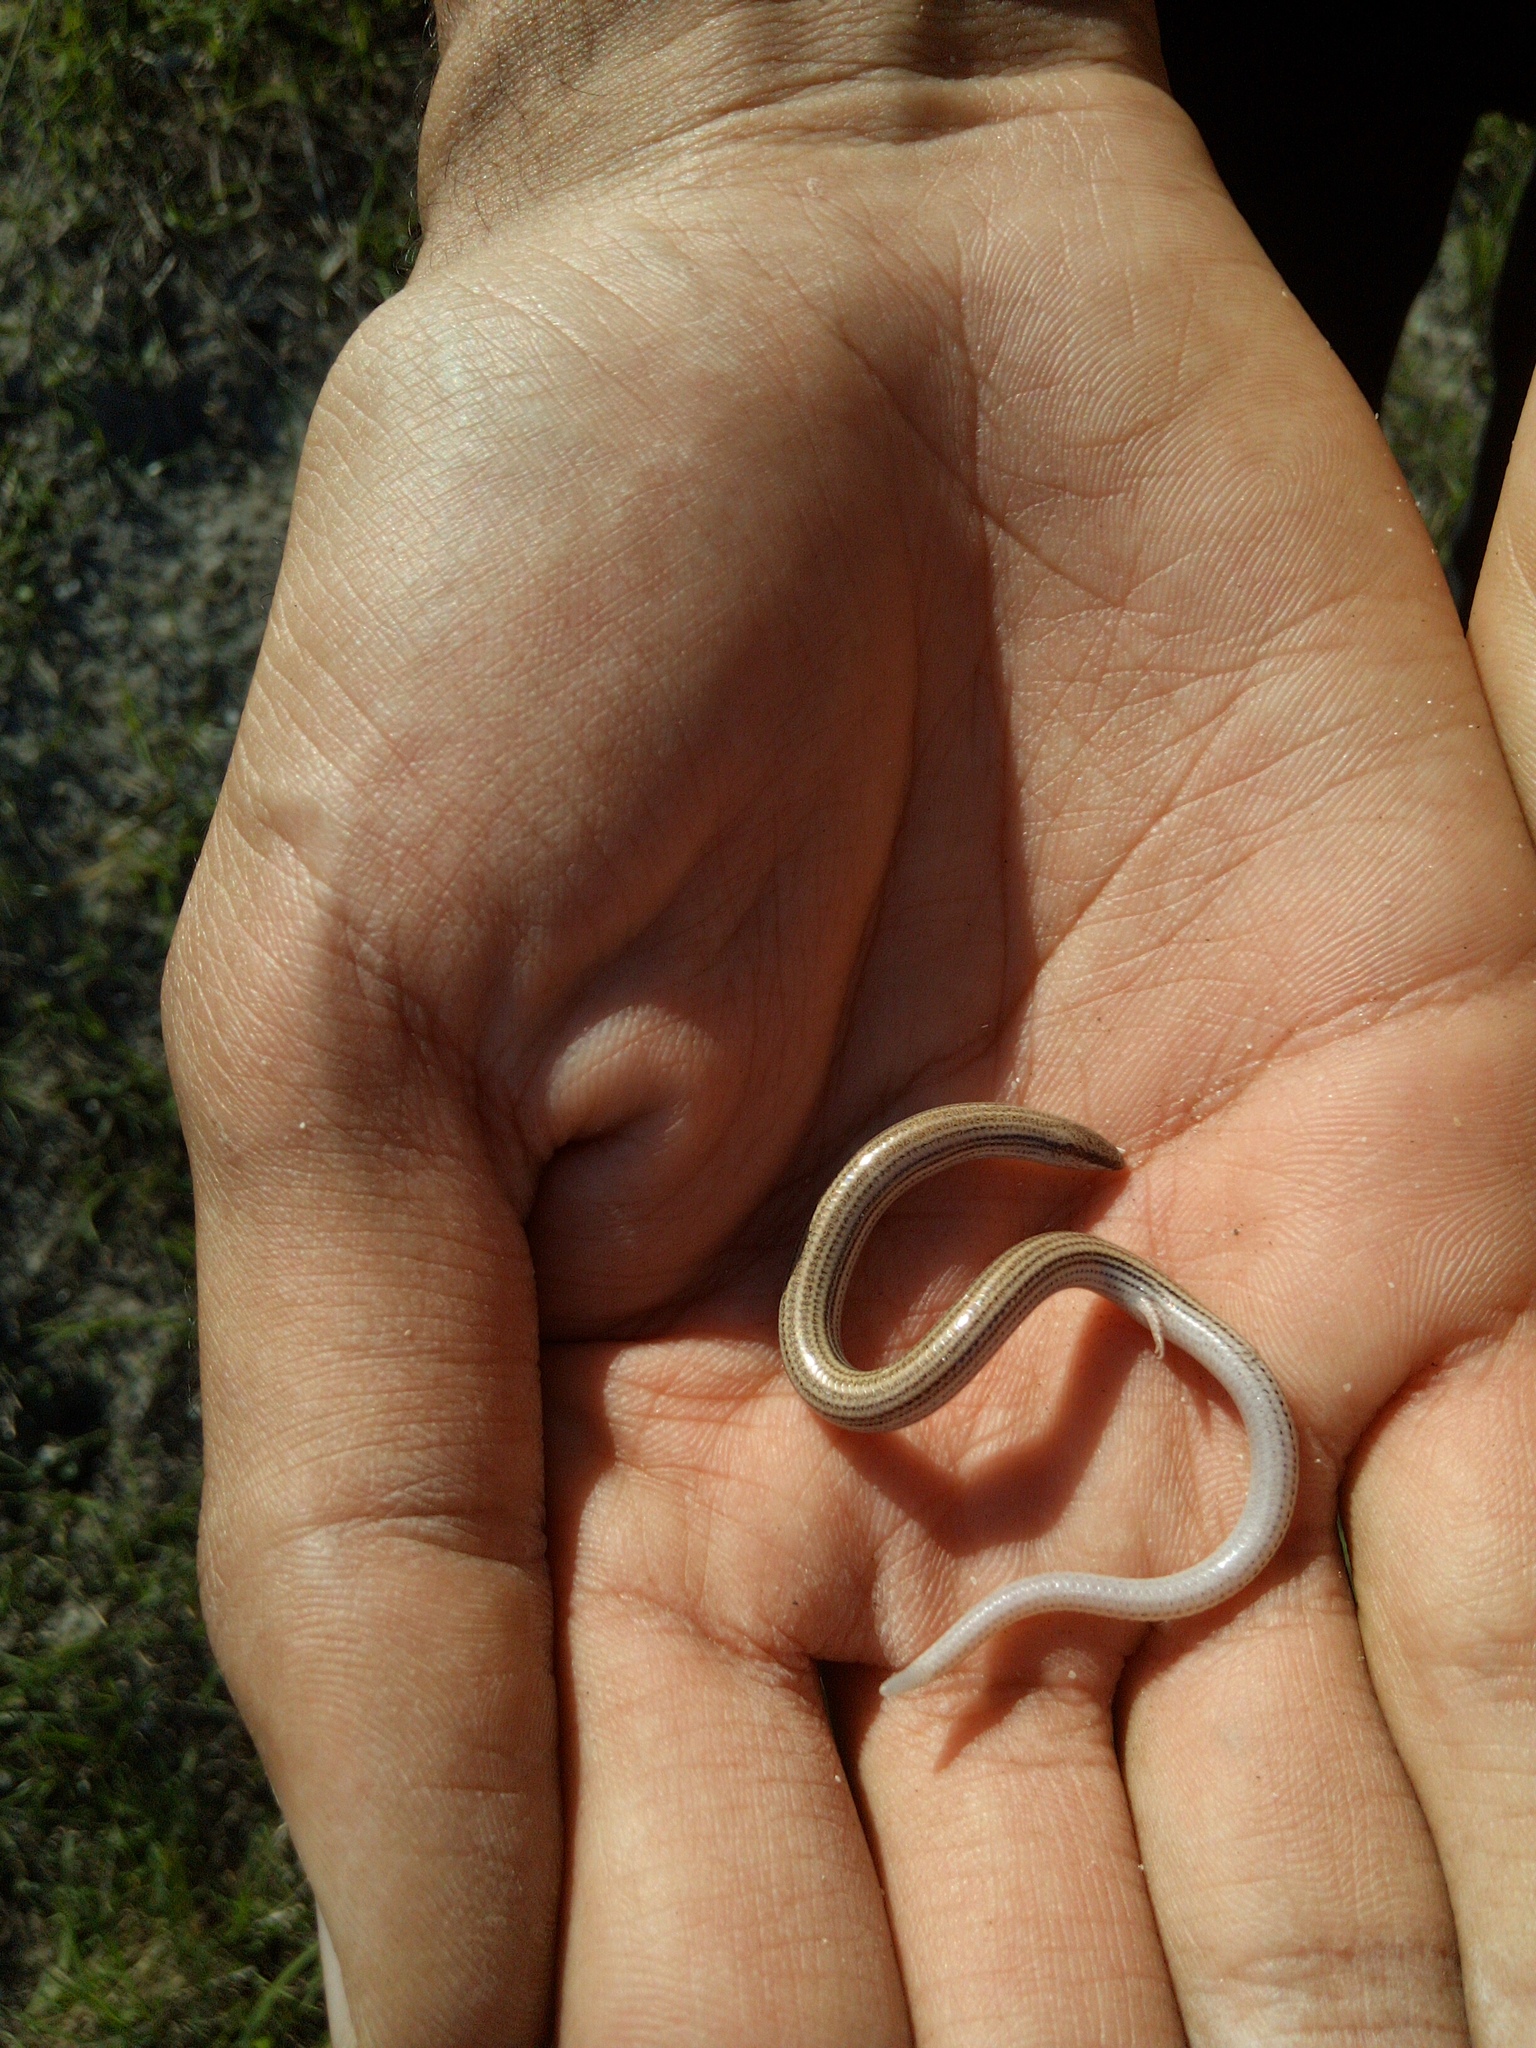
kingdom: Animalia
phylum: Chordata
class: Squamata
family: Scincidae
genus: Scelotes
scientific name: Scelotes bipes
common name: Common burrowing skink
